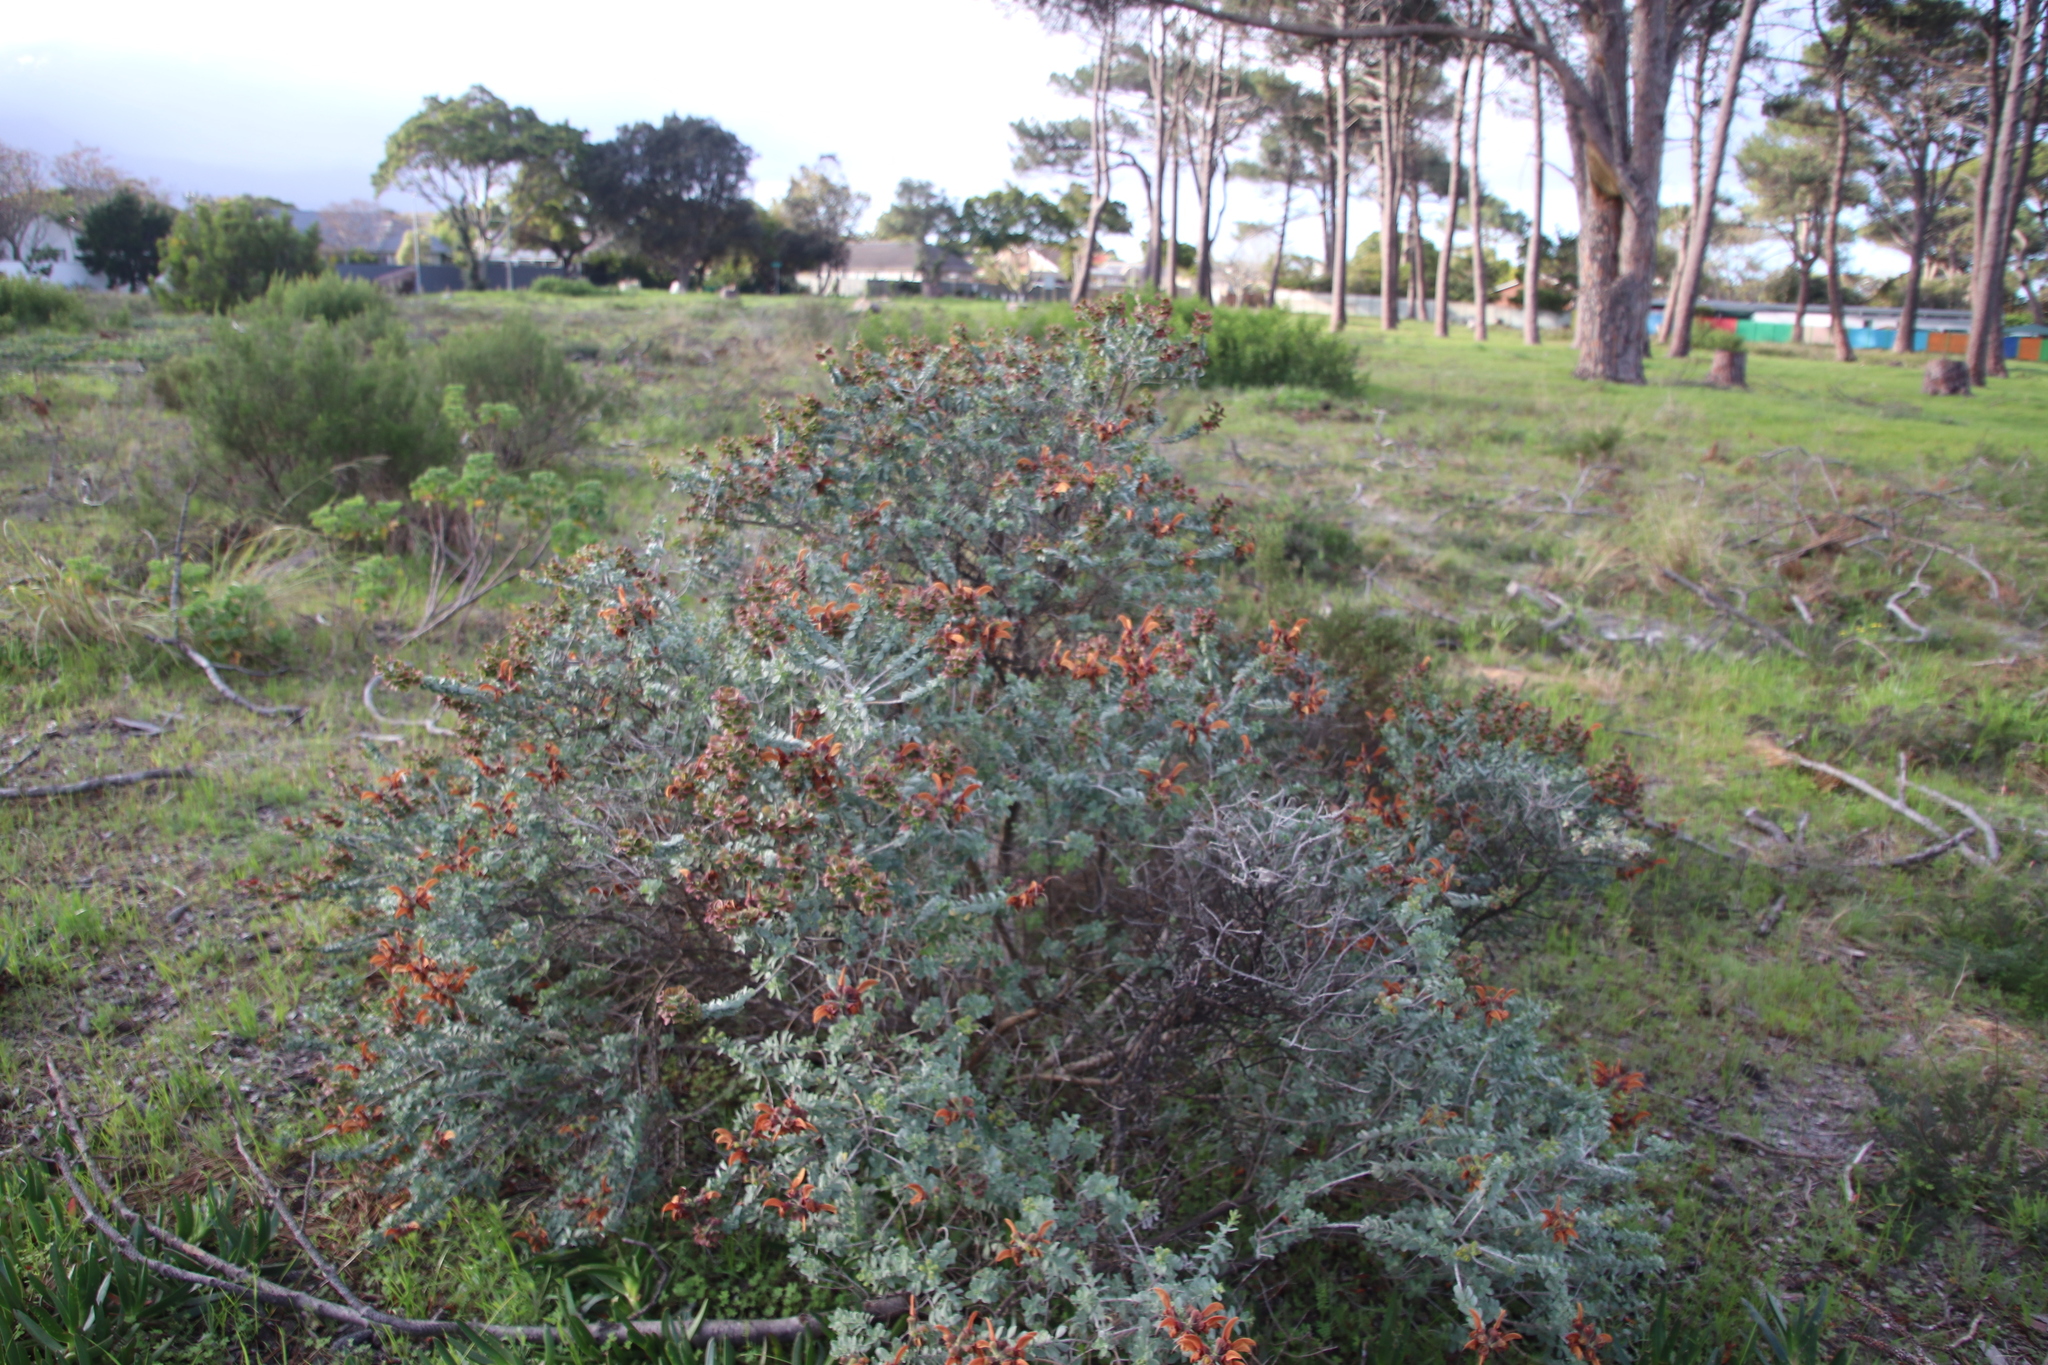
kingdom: Plantae
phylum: Tracheophyta
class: Magnoliopsida
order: Lamiales
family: Lamiaceae
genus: Salvia
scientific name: Salvia aurea
